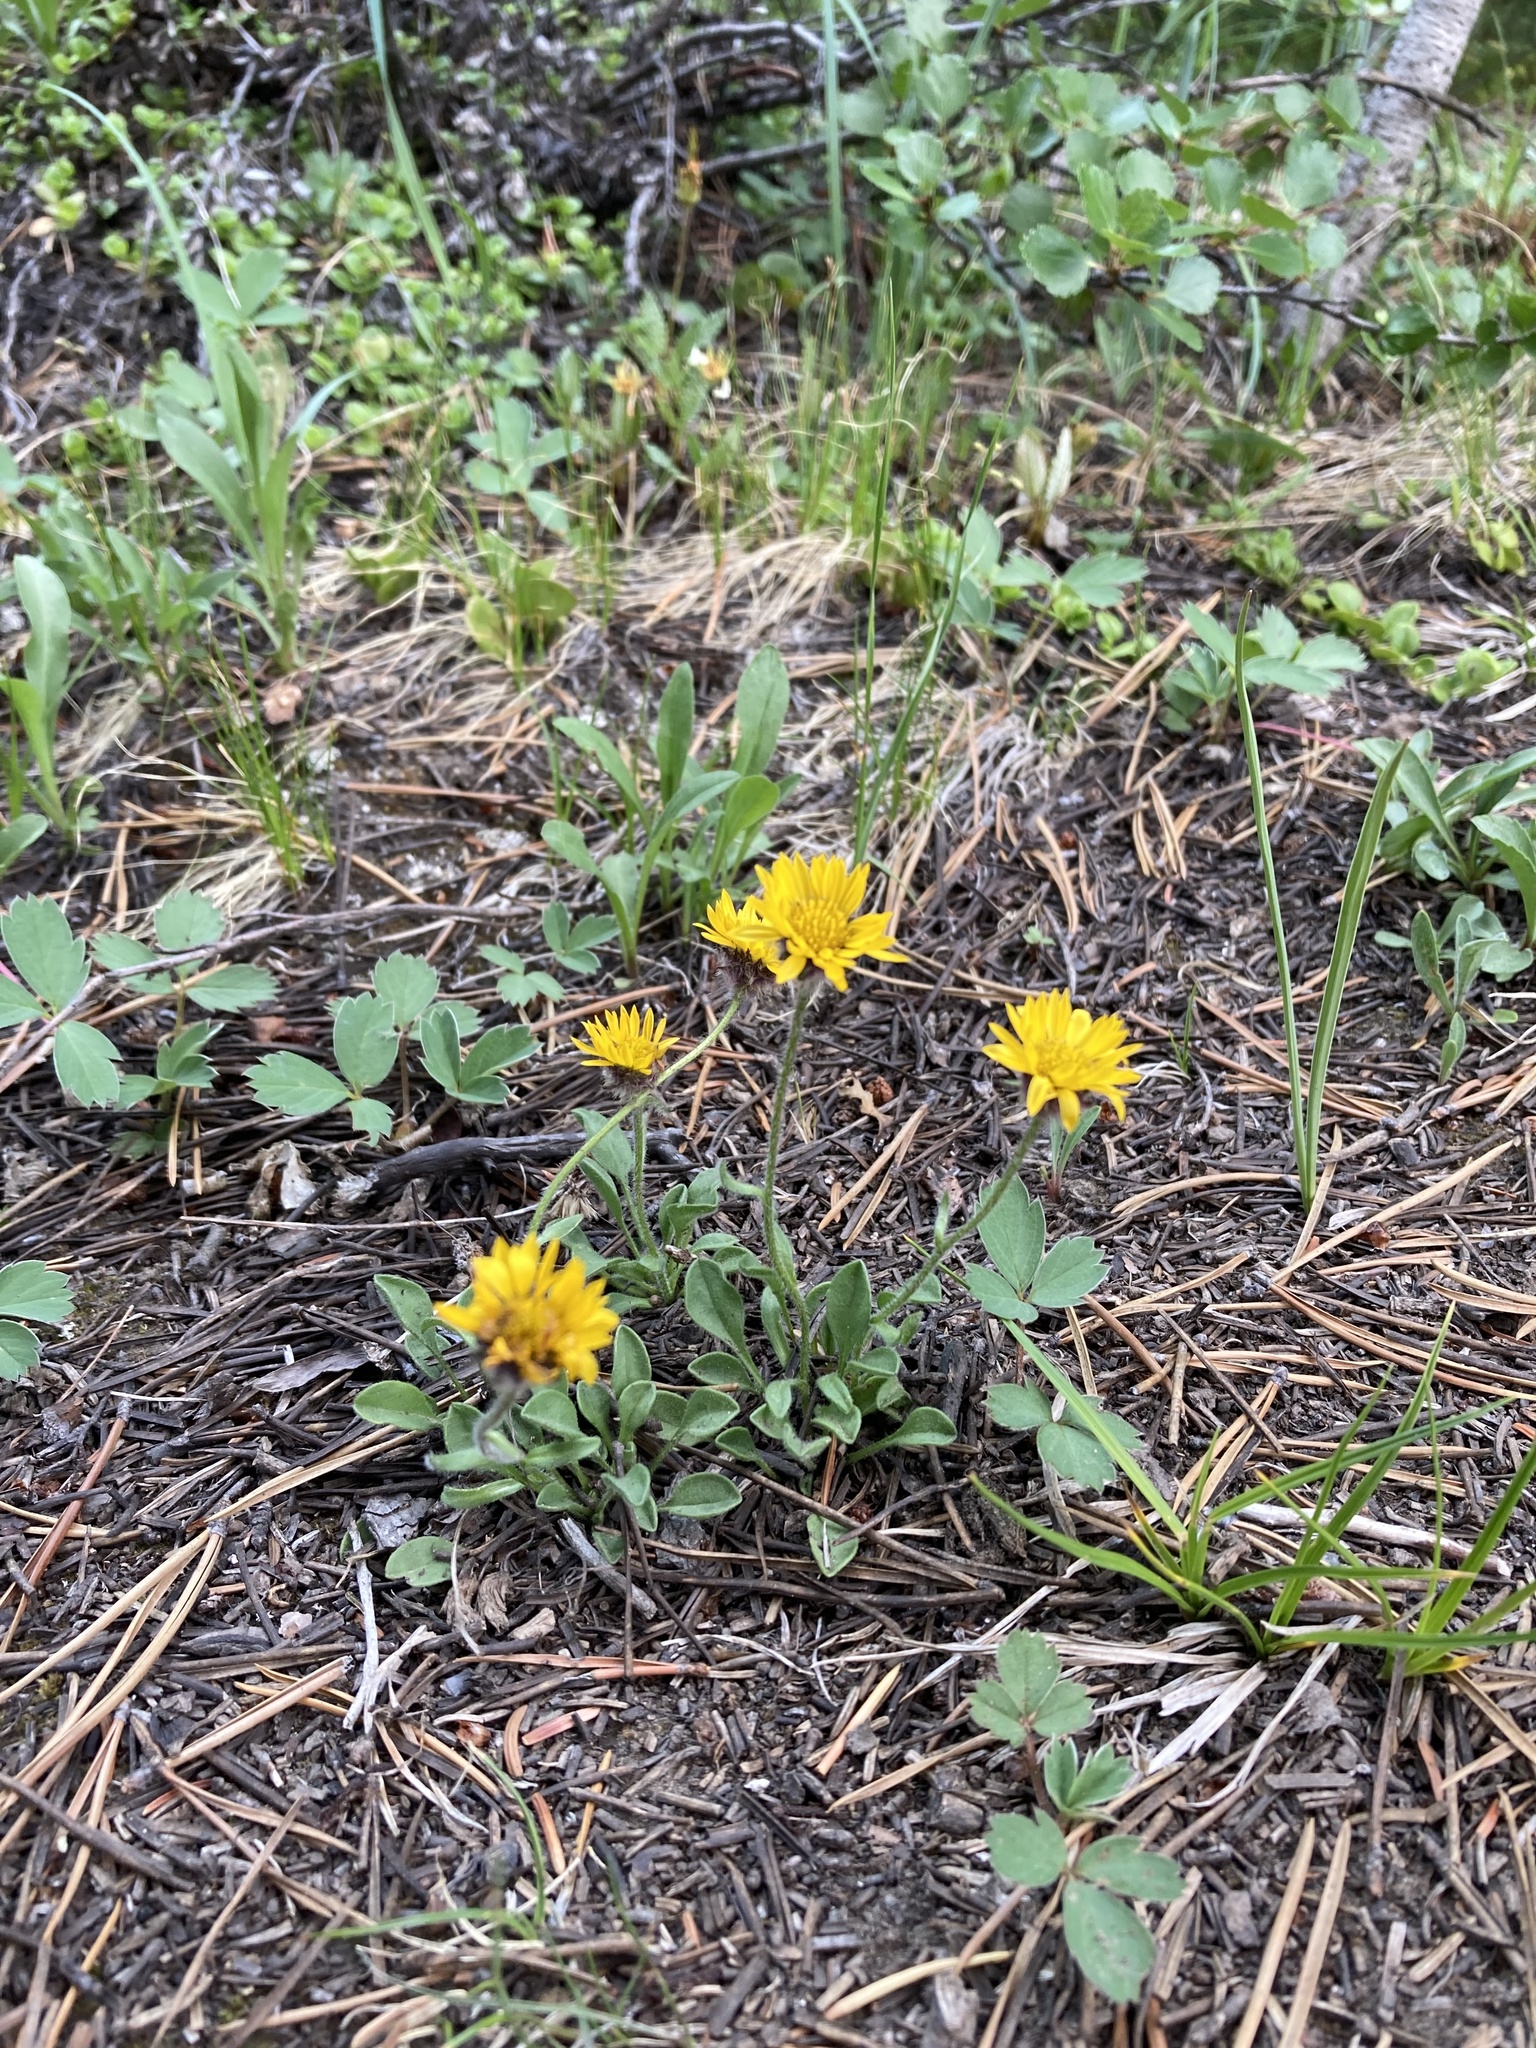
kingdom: Plantae
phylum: Tracheophyta
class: Magnoliopsida
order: Asterales
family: Asteraceae
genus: Erigeron
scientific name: Erigeron aureus
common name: Alpine yellow fleabane
